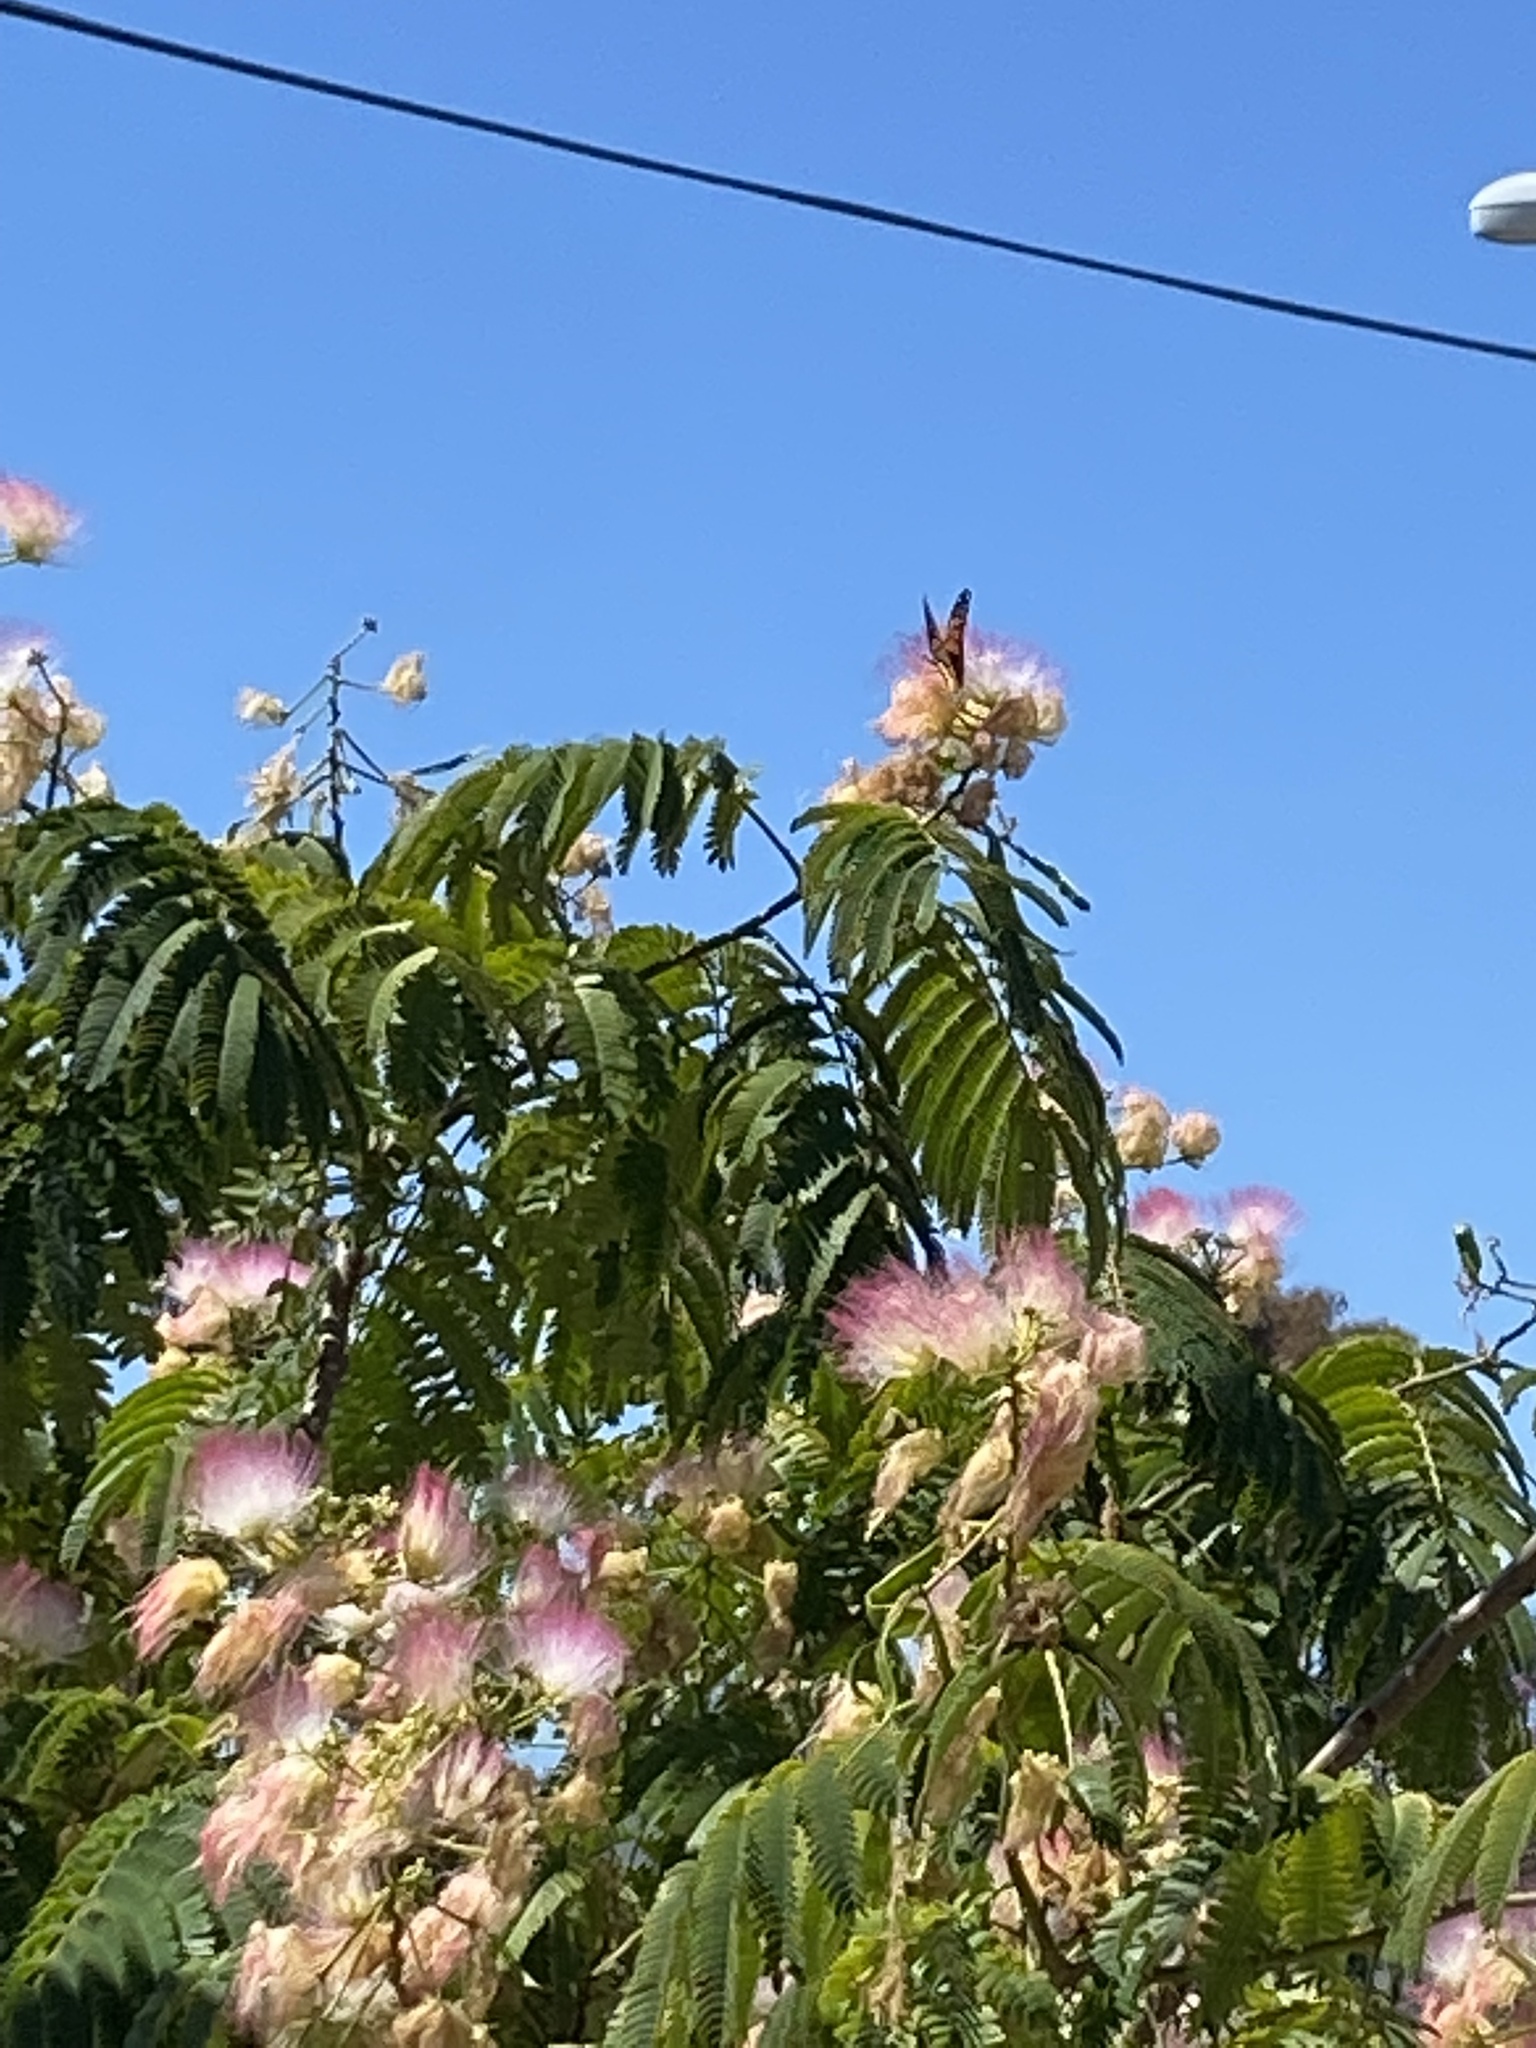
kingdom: Animalia
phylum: Arthropoda
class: Insecta
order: Lepidoptera
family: Nymphalidae
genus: Danaus
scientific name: Danaus plexippus
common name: Monarch
